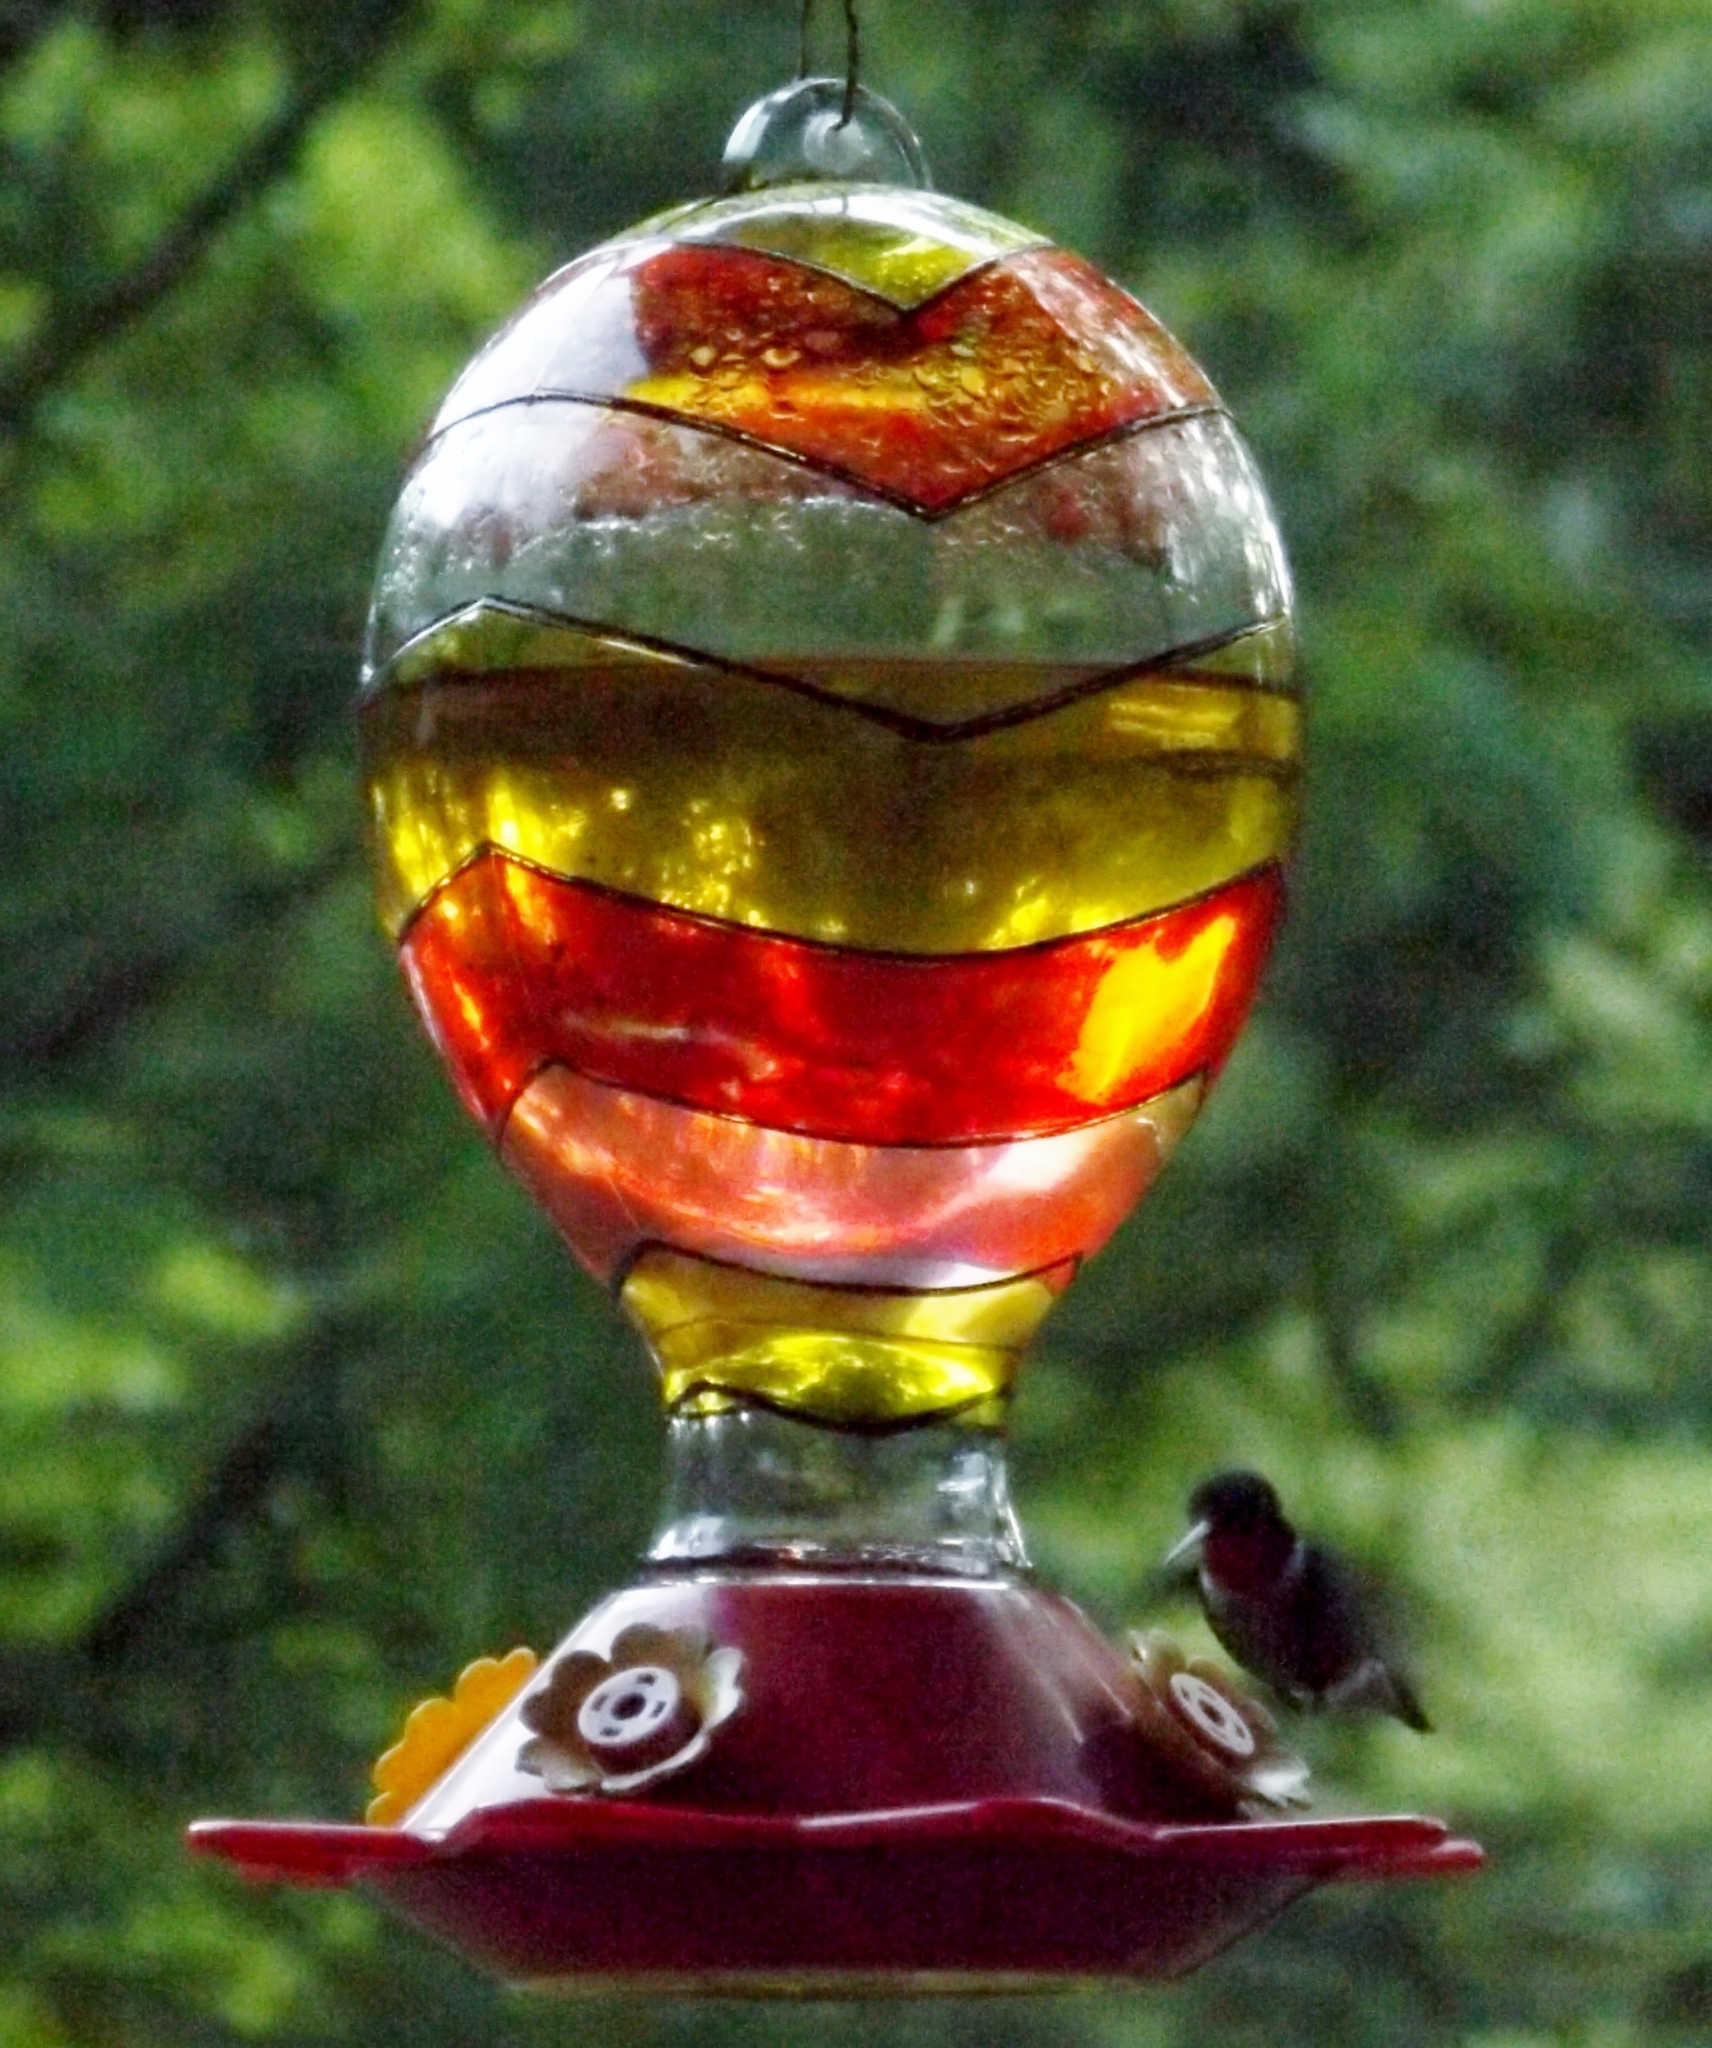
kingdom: Animalia
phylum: Chordata
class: Aves
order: Apodiformes
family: Trochilidae
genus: Archilochus
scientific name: Archilochus colubris
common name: Ruby-throated hummingbird
